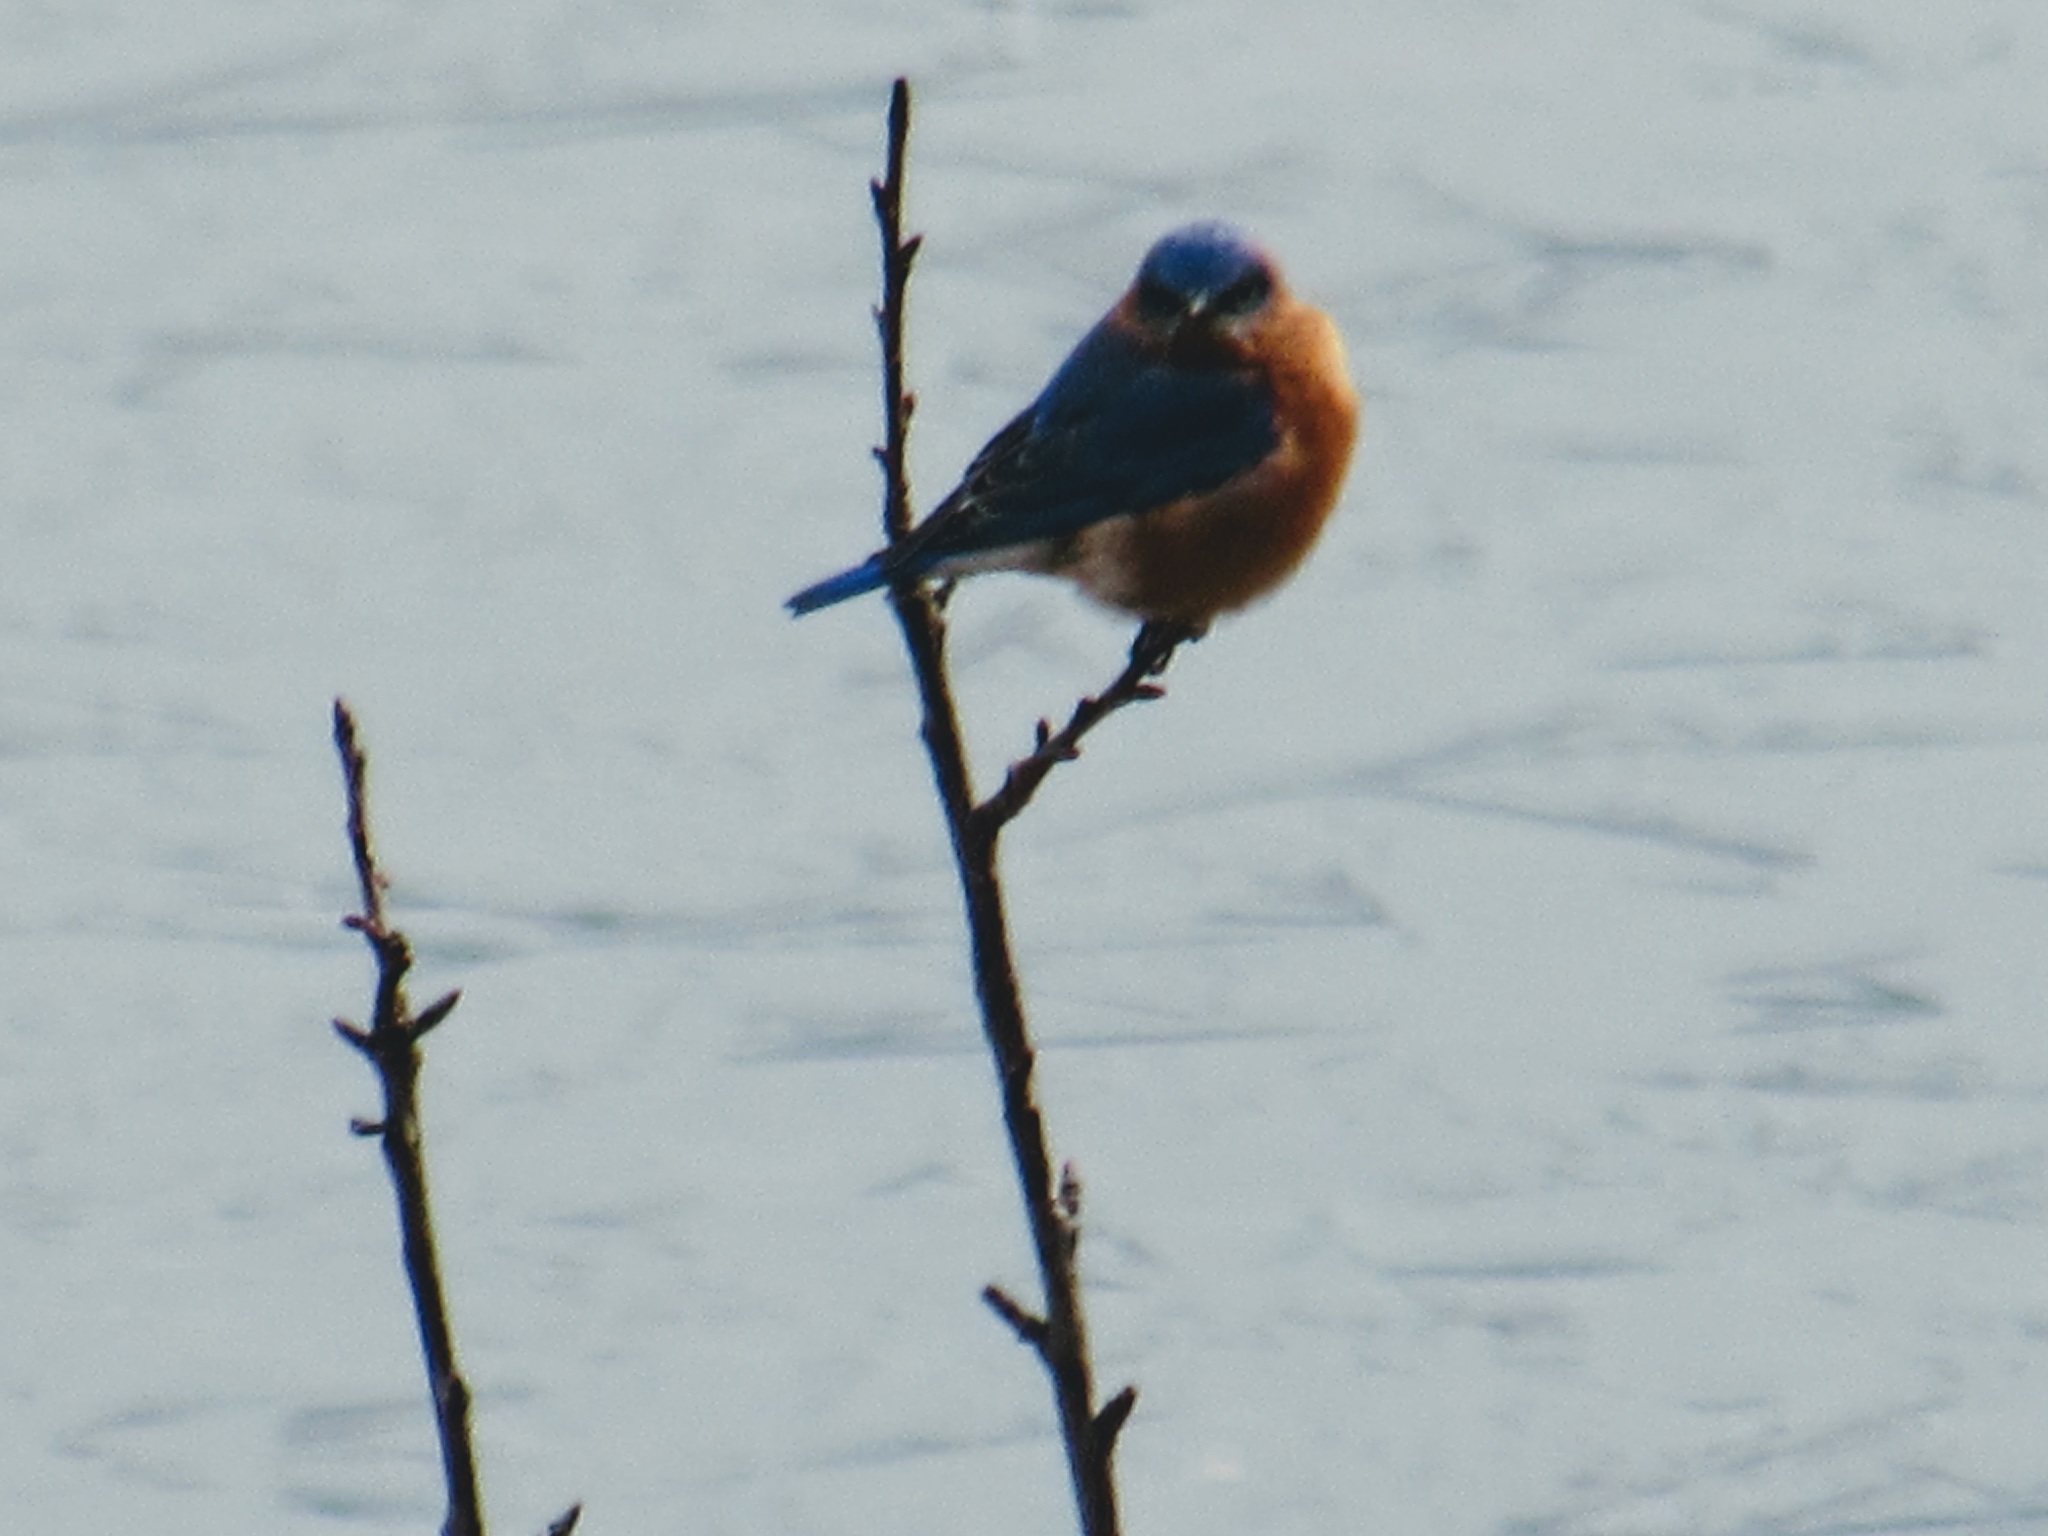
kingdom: Animalia
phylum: Chordata
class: Aves
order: Passeriformes
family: Turdidae
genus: Sialia
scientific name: Sialia sialis
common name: Eastern bluebird
